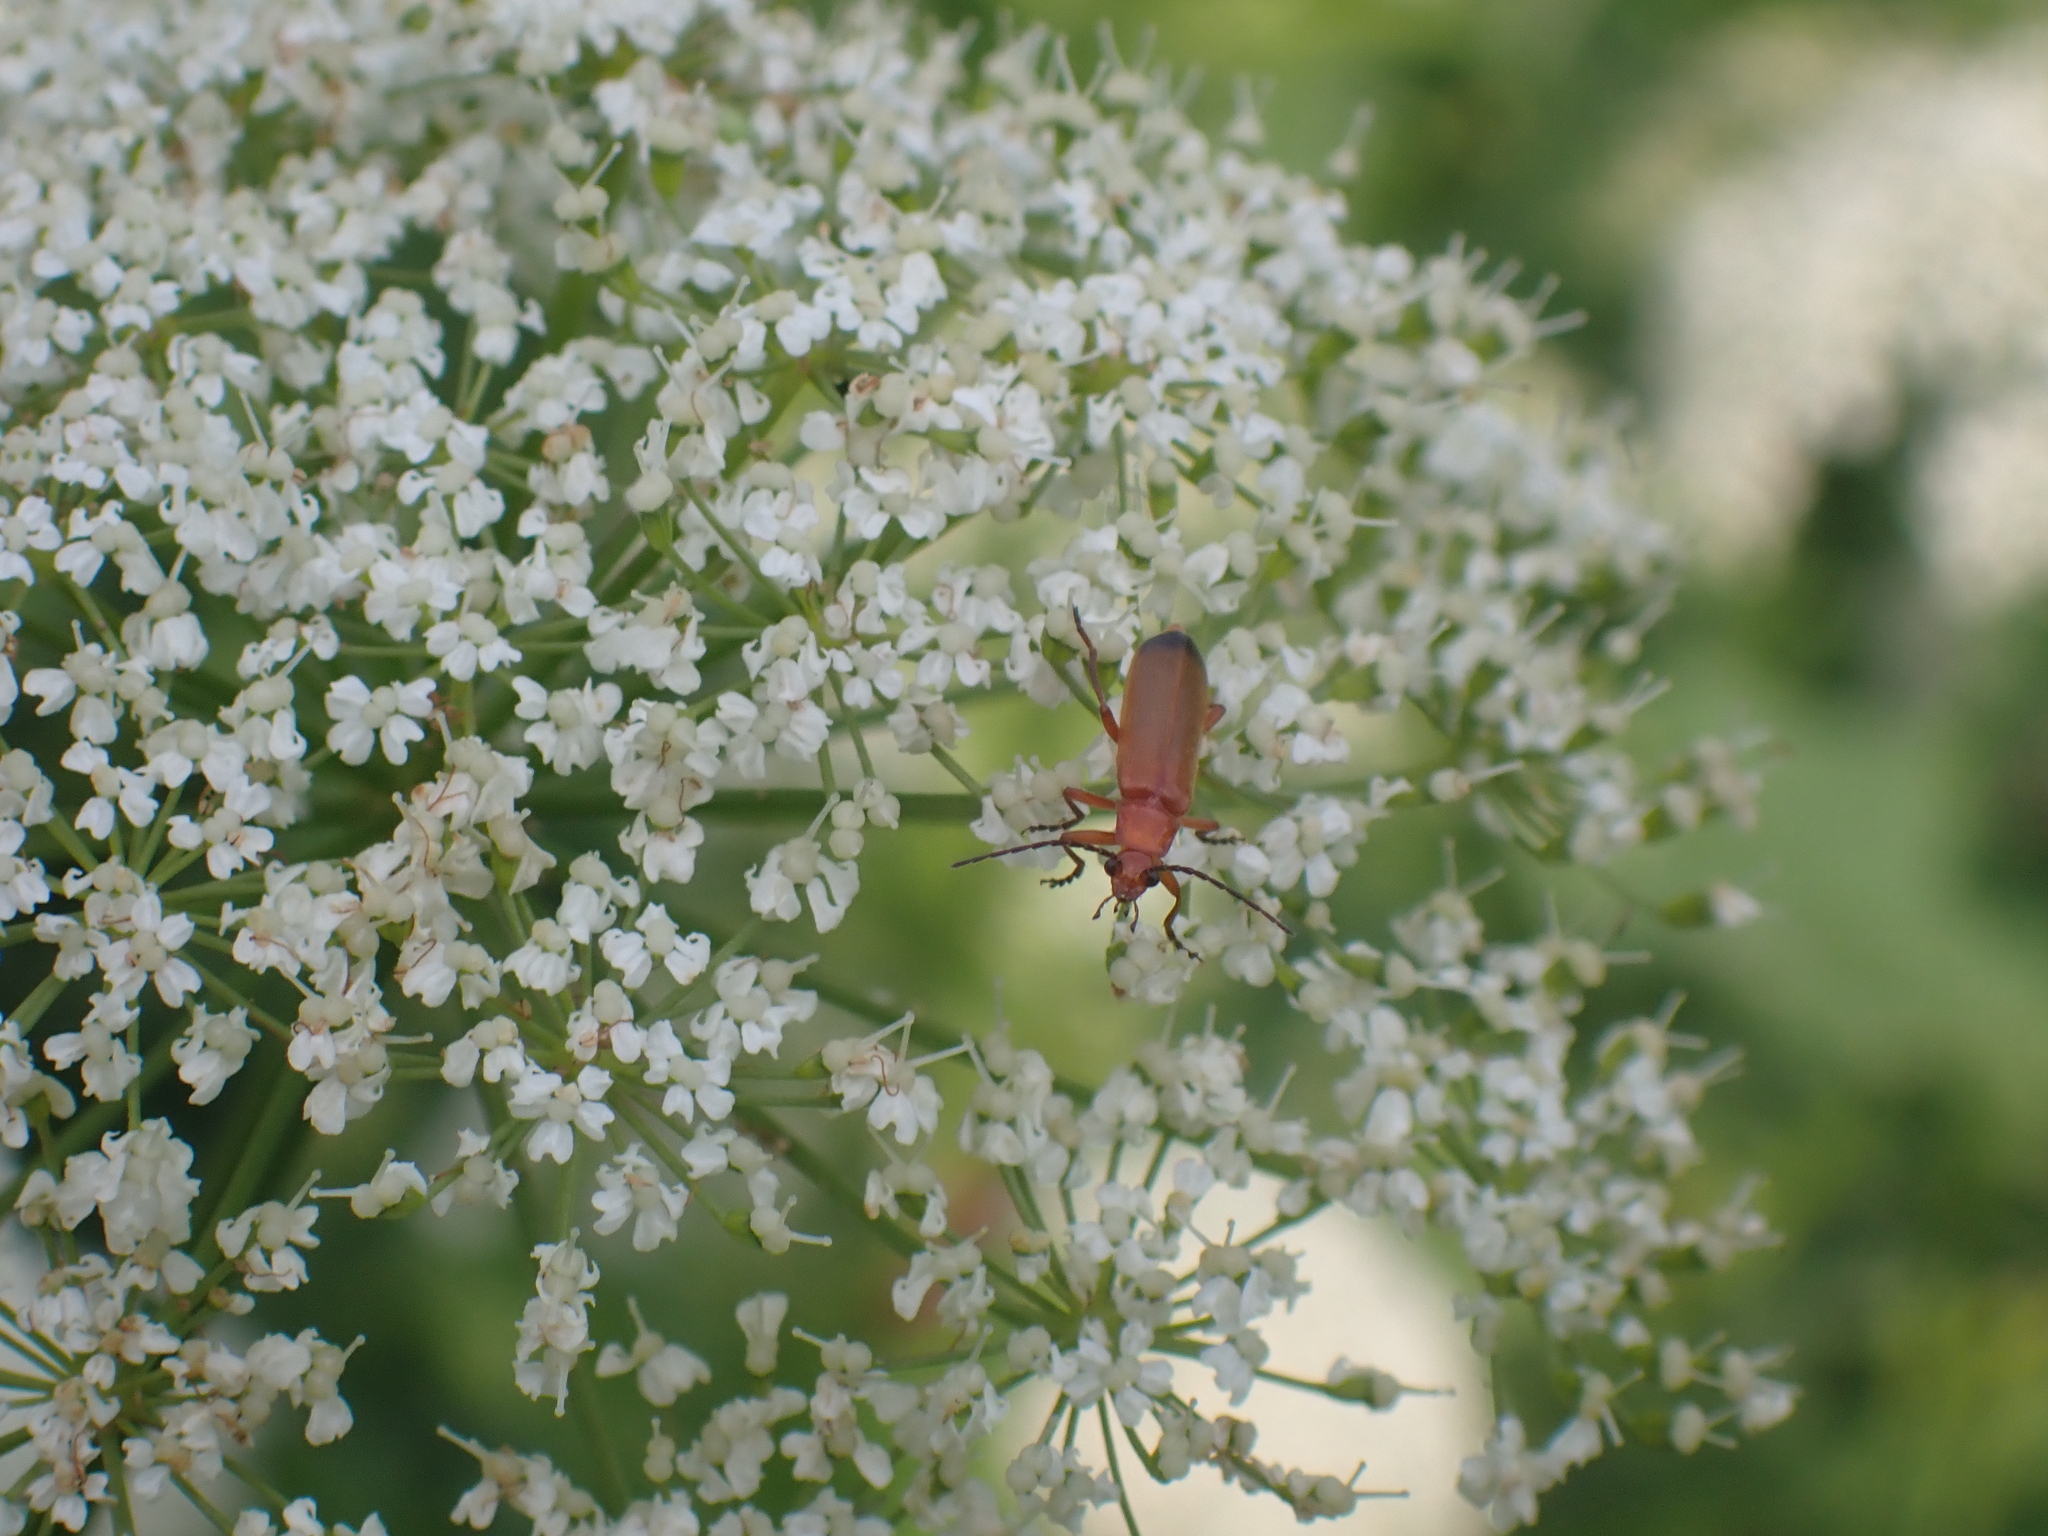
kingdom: Animalia
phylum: Arthropoda
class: Insecta
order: Coleoptera
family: Cantharidae
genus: Rhagonycha
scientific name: Rhagonycha fulva
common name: Common red soldier beetle
